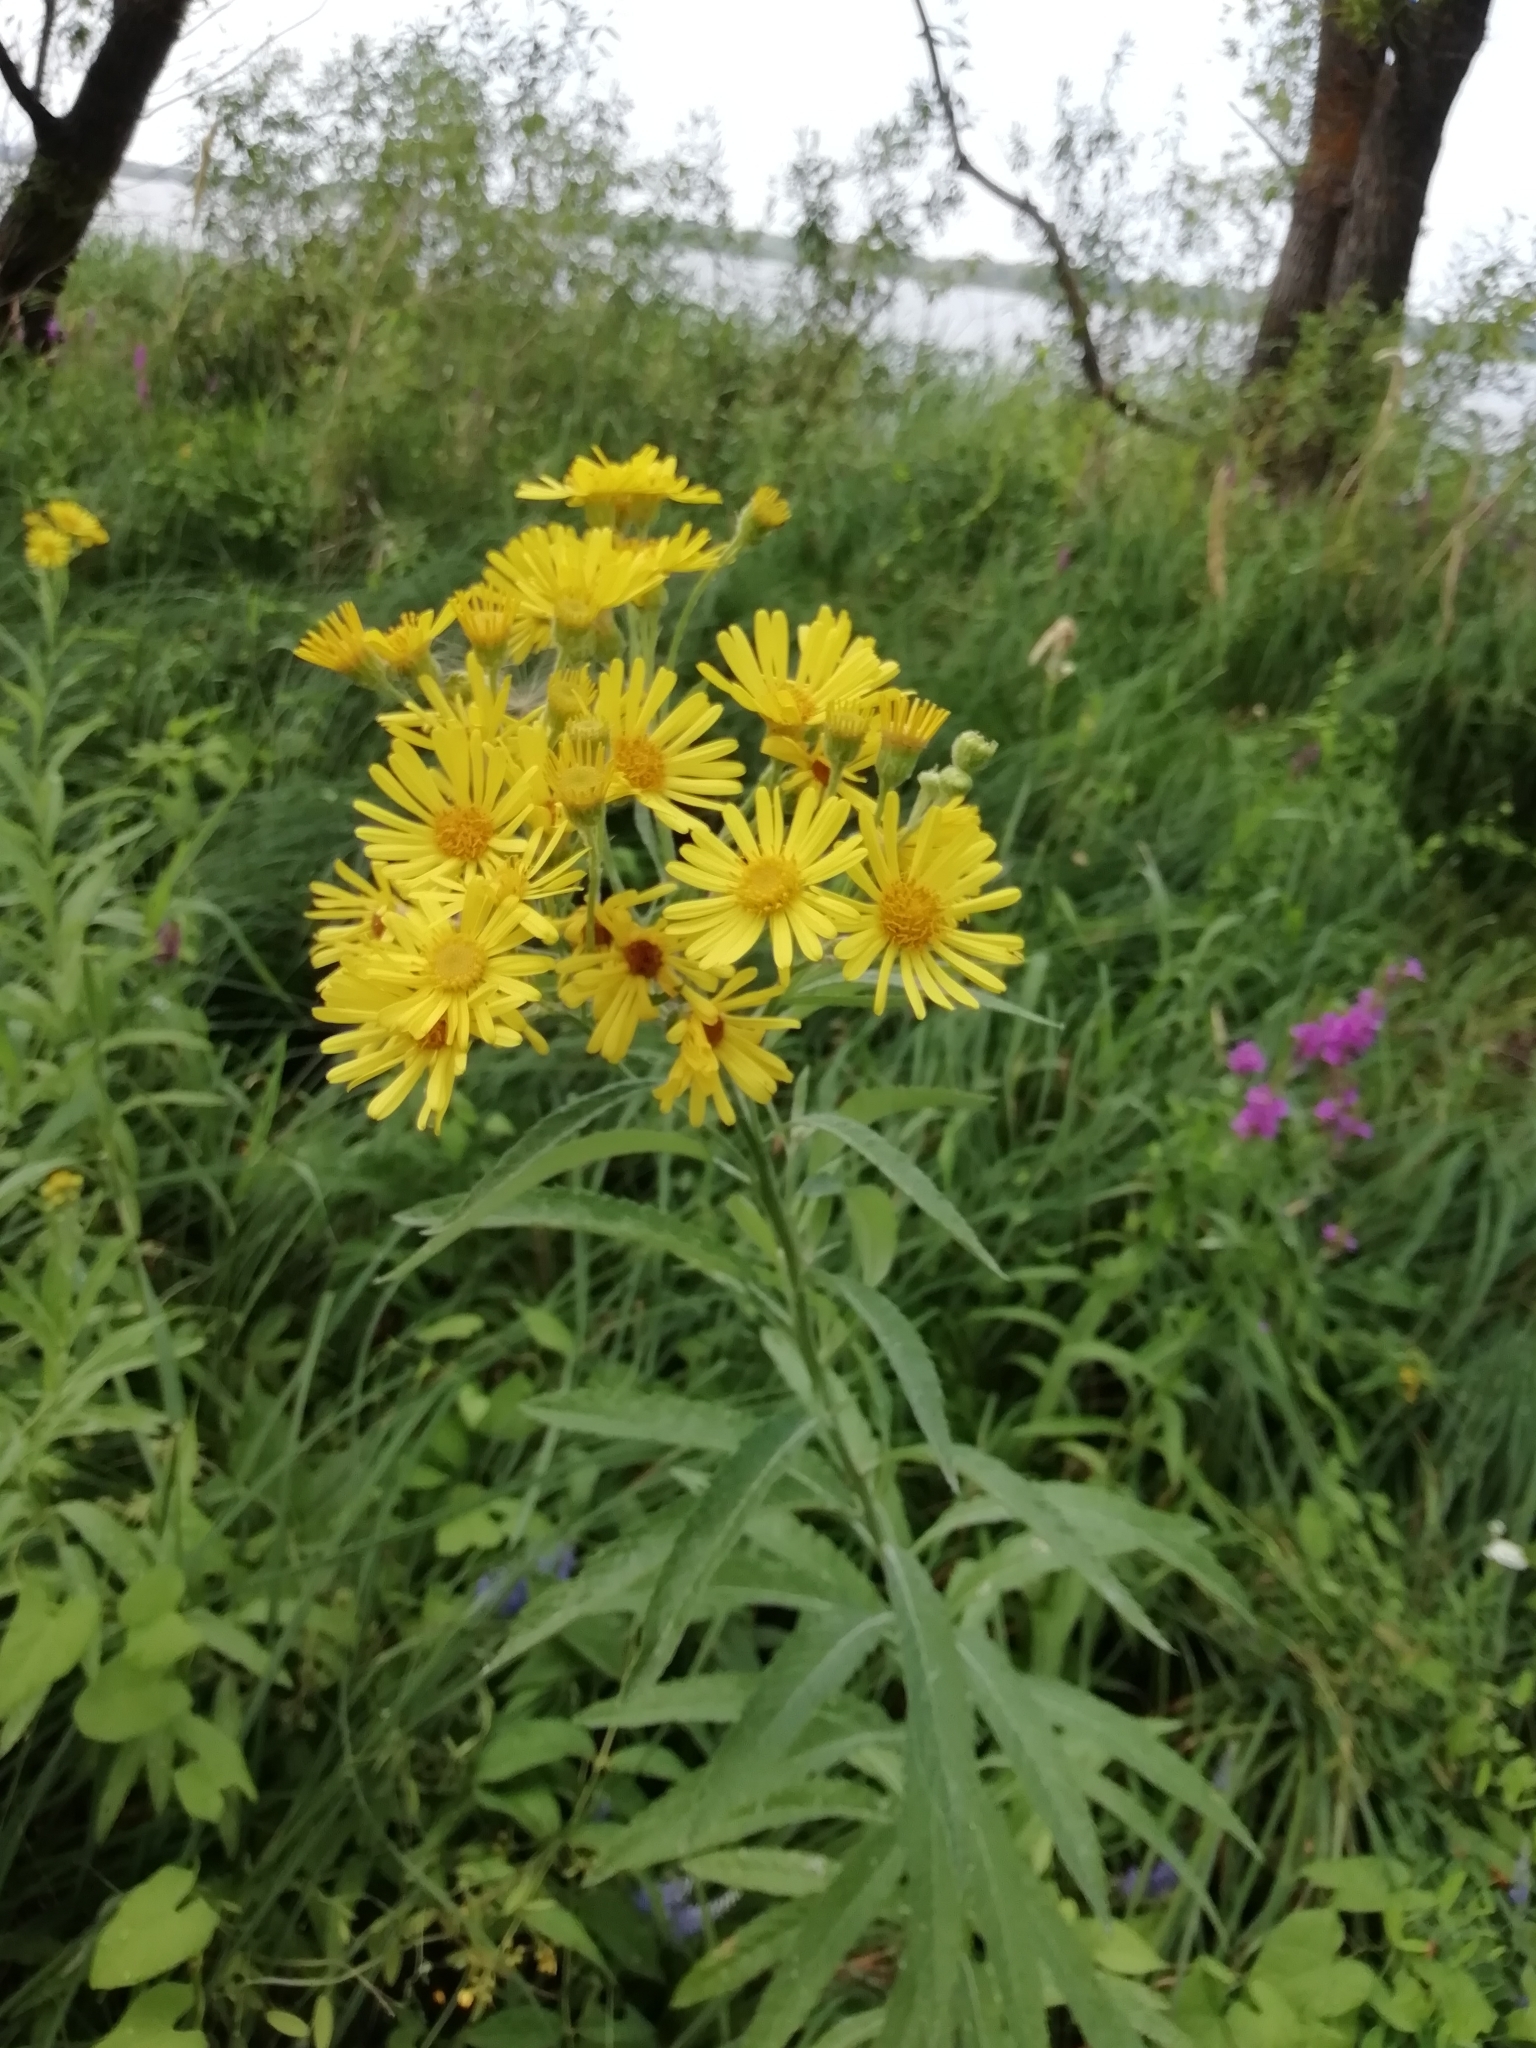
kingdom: Plantae
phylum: Tracheophyta
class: Magnoliopsida
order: Asterales
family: Asteraceae
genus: Jacobaea
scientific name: Jacobaea paludosa
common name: Fen ragwort
